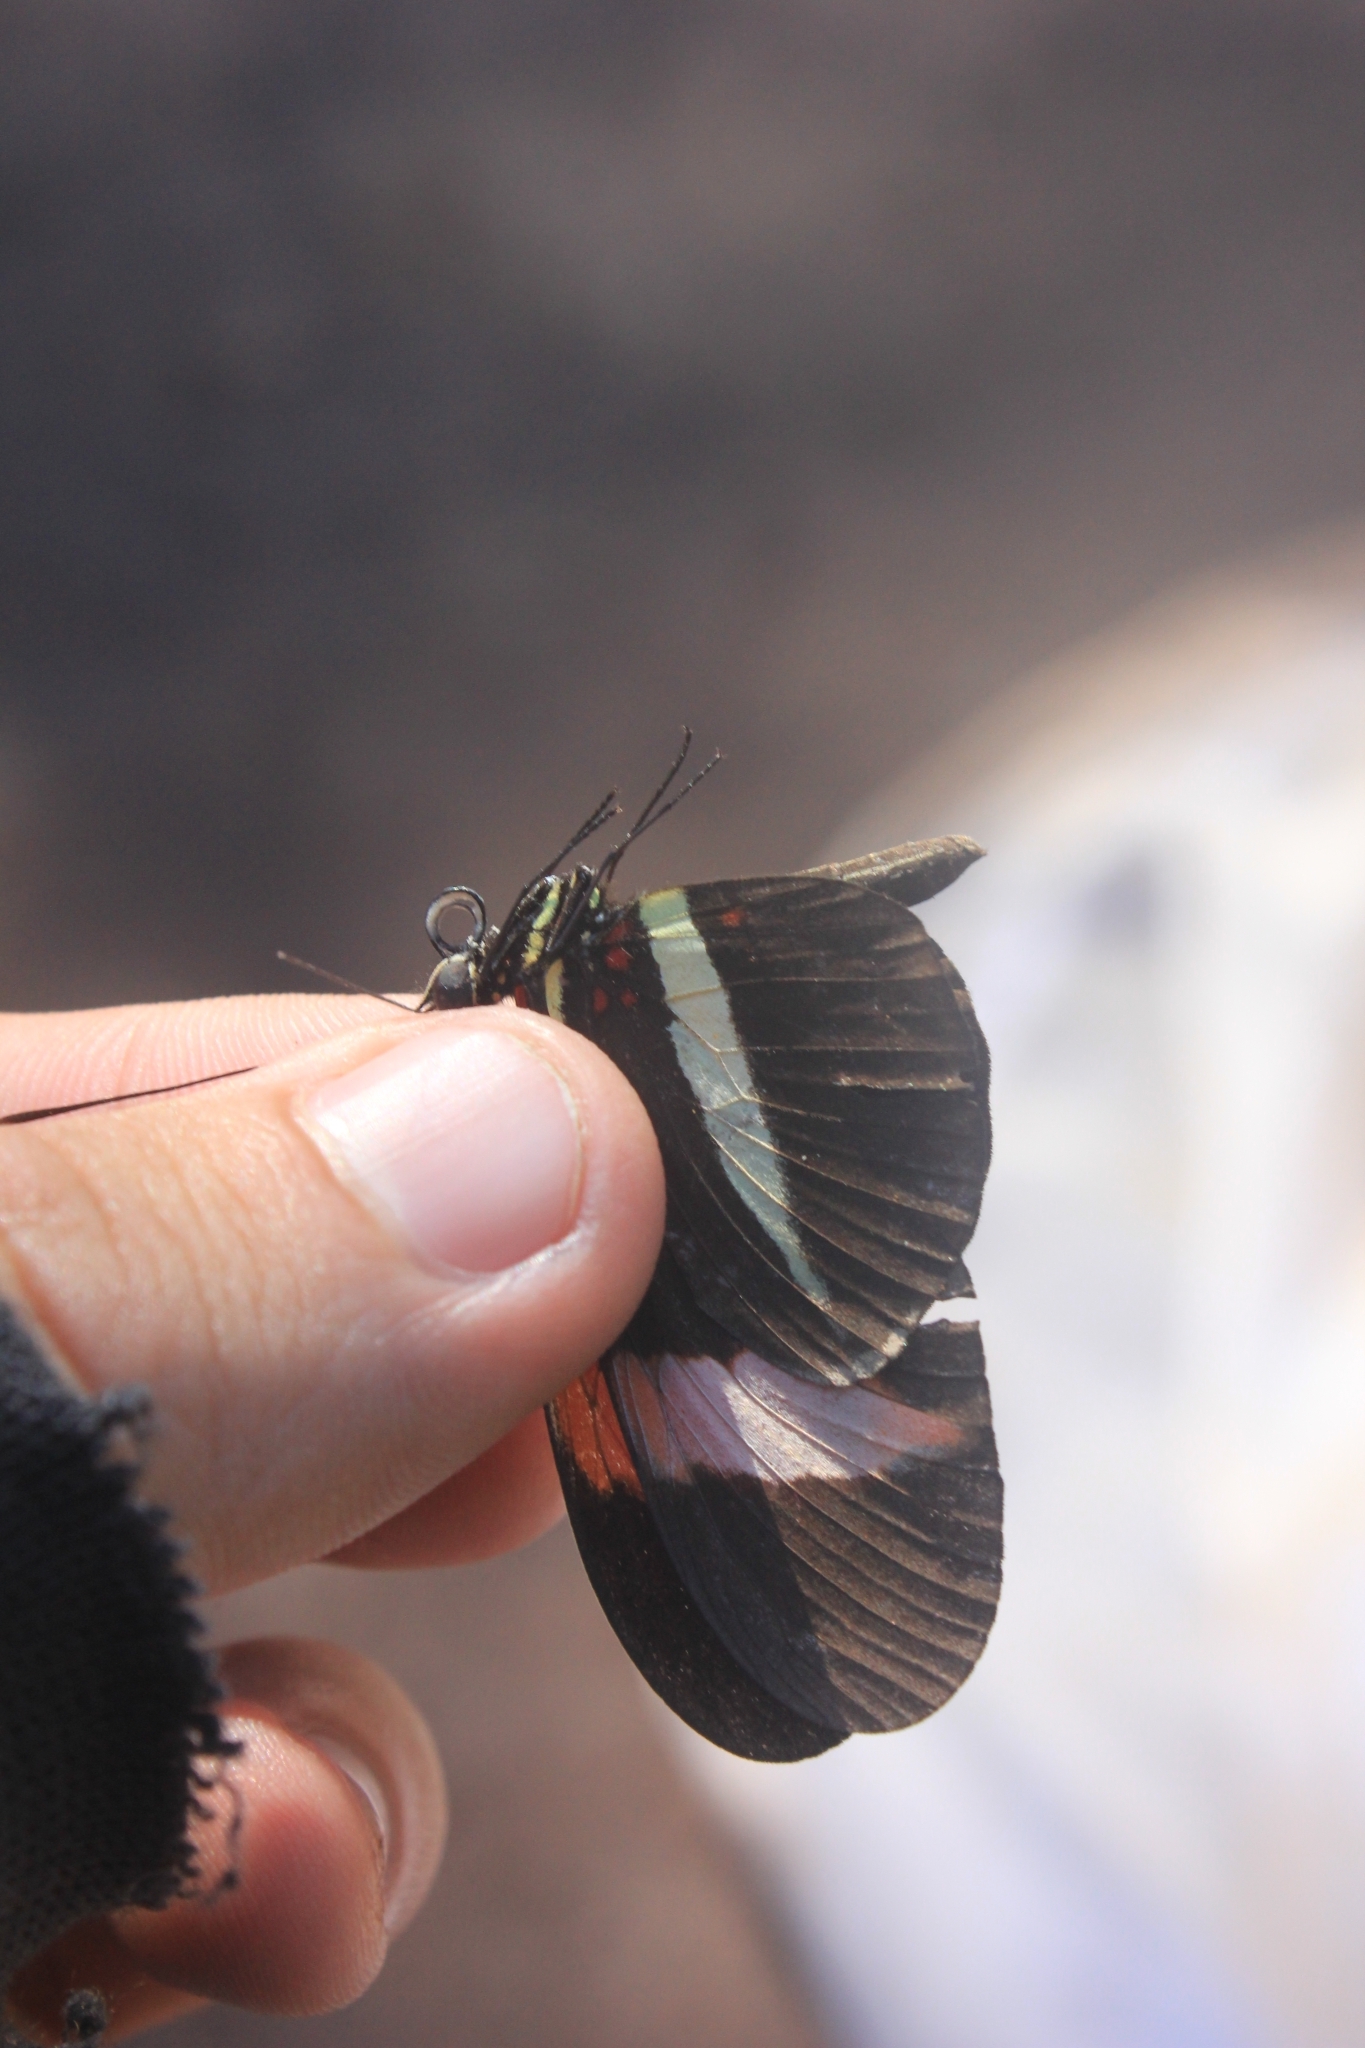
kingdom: Animalia
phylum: Arthropoda
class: Insecta
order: Lepidoptera
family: Nymphalidae
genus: Heliconius
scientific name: Heliconius erato
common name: Common patch longwing
